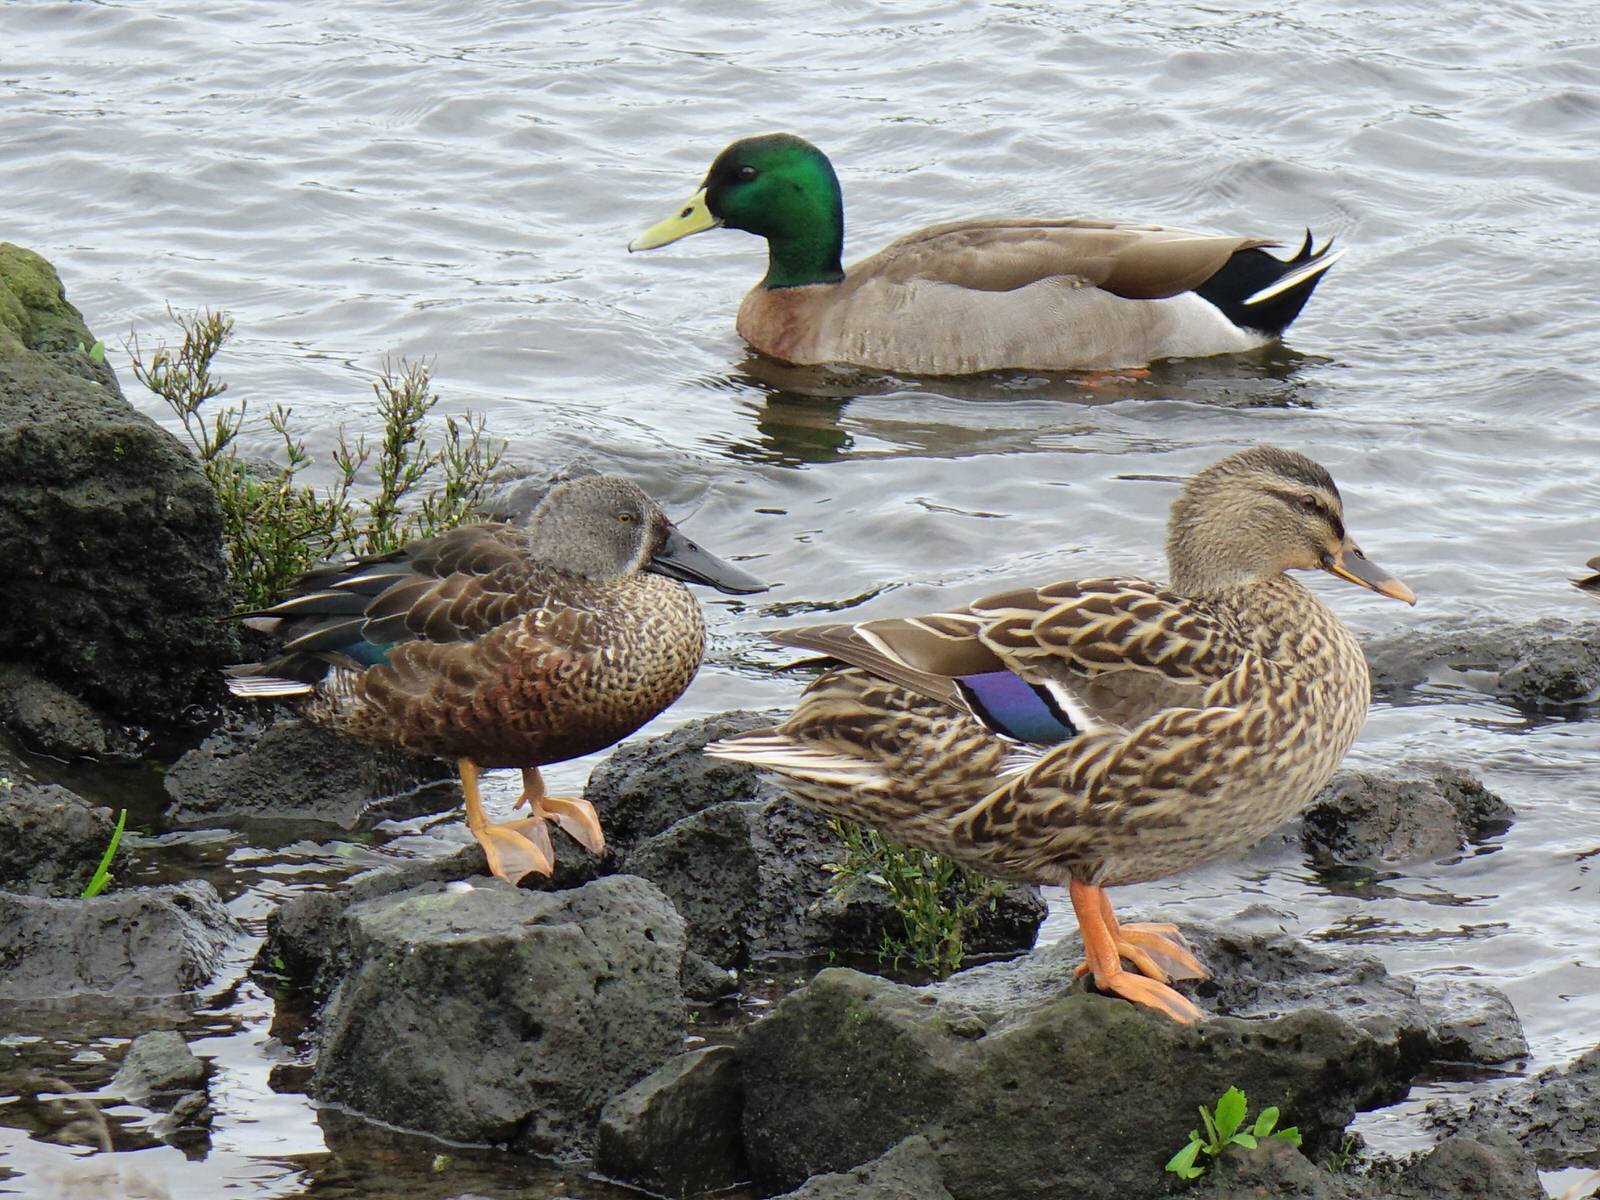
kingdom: Animalia
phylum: Chordata
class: Aves
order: Anseriformes
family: Anatidae
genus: Spatula
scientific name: Spatula rhynchotis
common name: Australian shoveler
